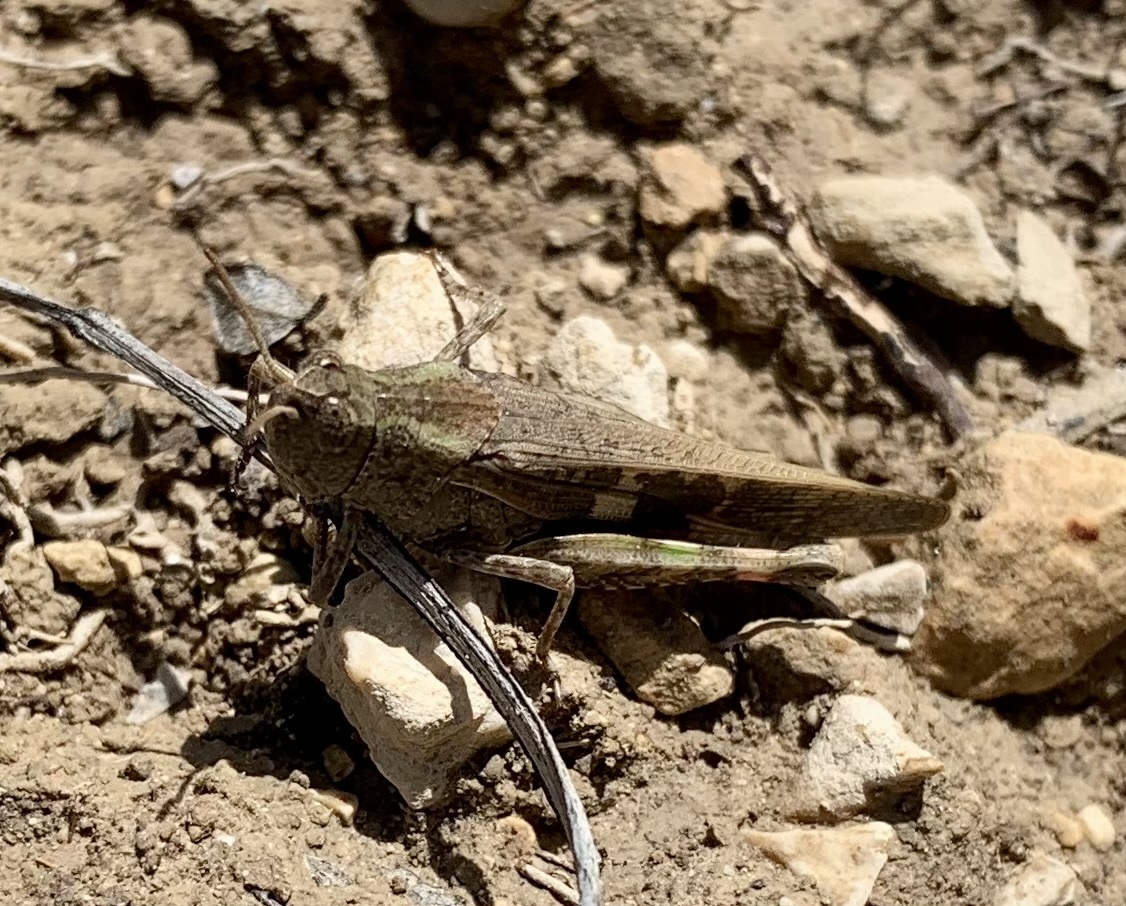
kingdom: Animalia
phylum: Arthropoda
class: Insecta
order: Orthoptera
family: Acrididae
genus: Aiolopus
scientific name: Aiolopus strepens
